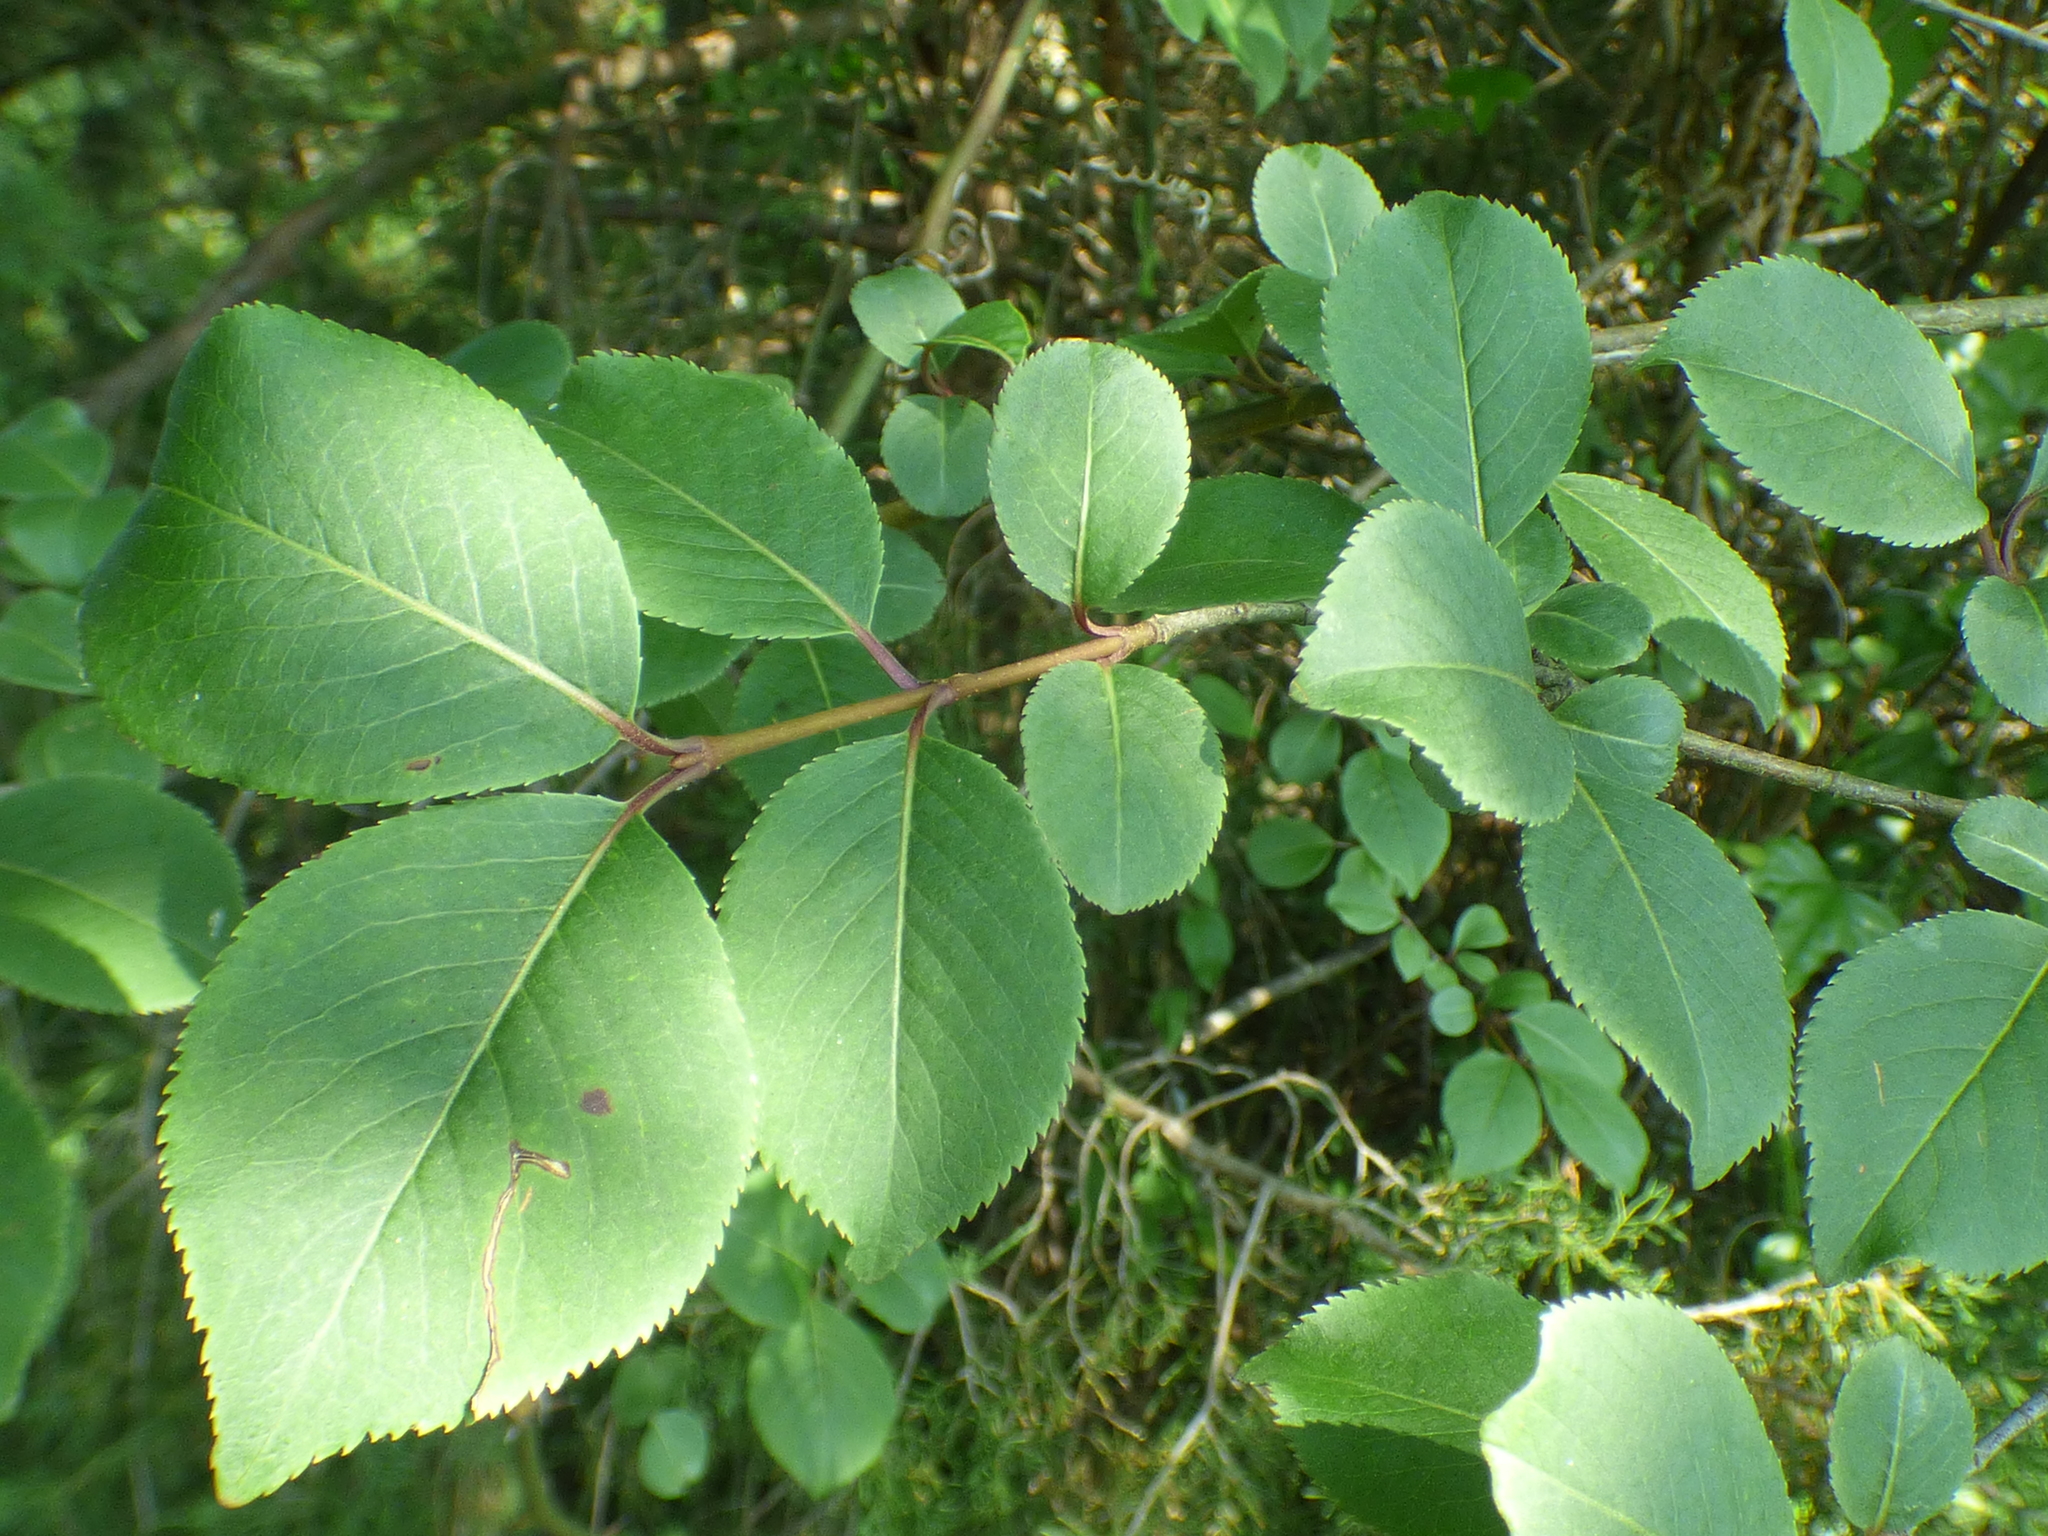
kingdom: Plantae
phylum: Tracheophyta
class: Magnoliopsida
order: Dipsacales
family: Viburnaceae
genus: Viburnum
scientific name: Viburnum prunifolium
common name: Black haw
